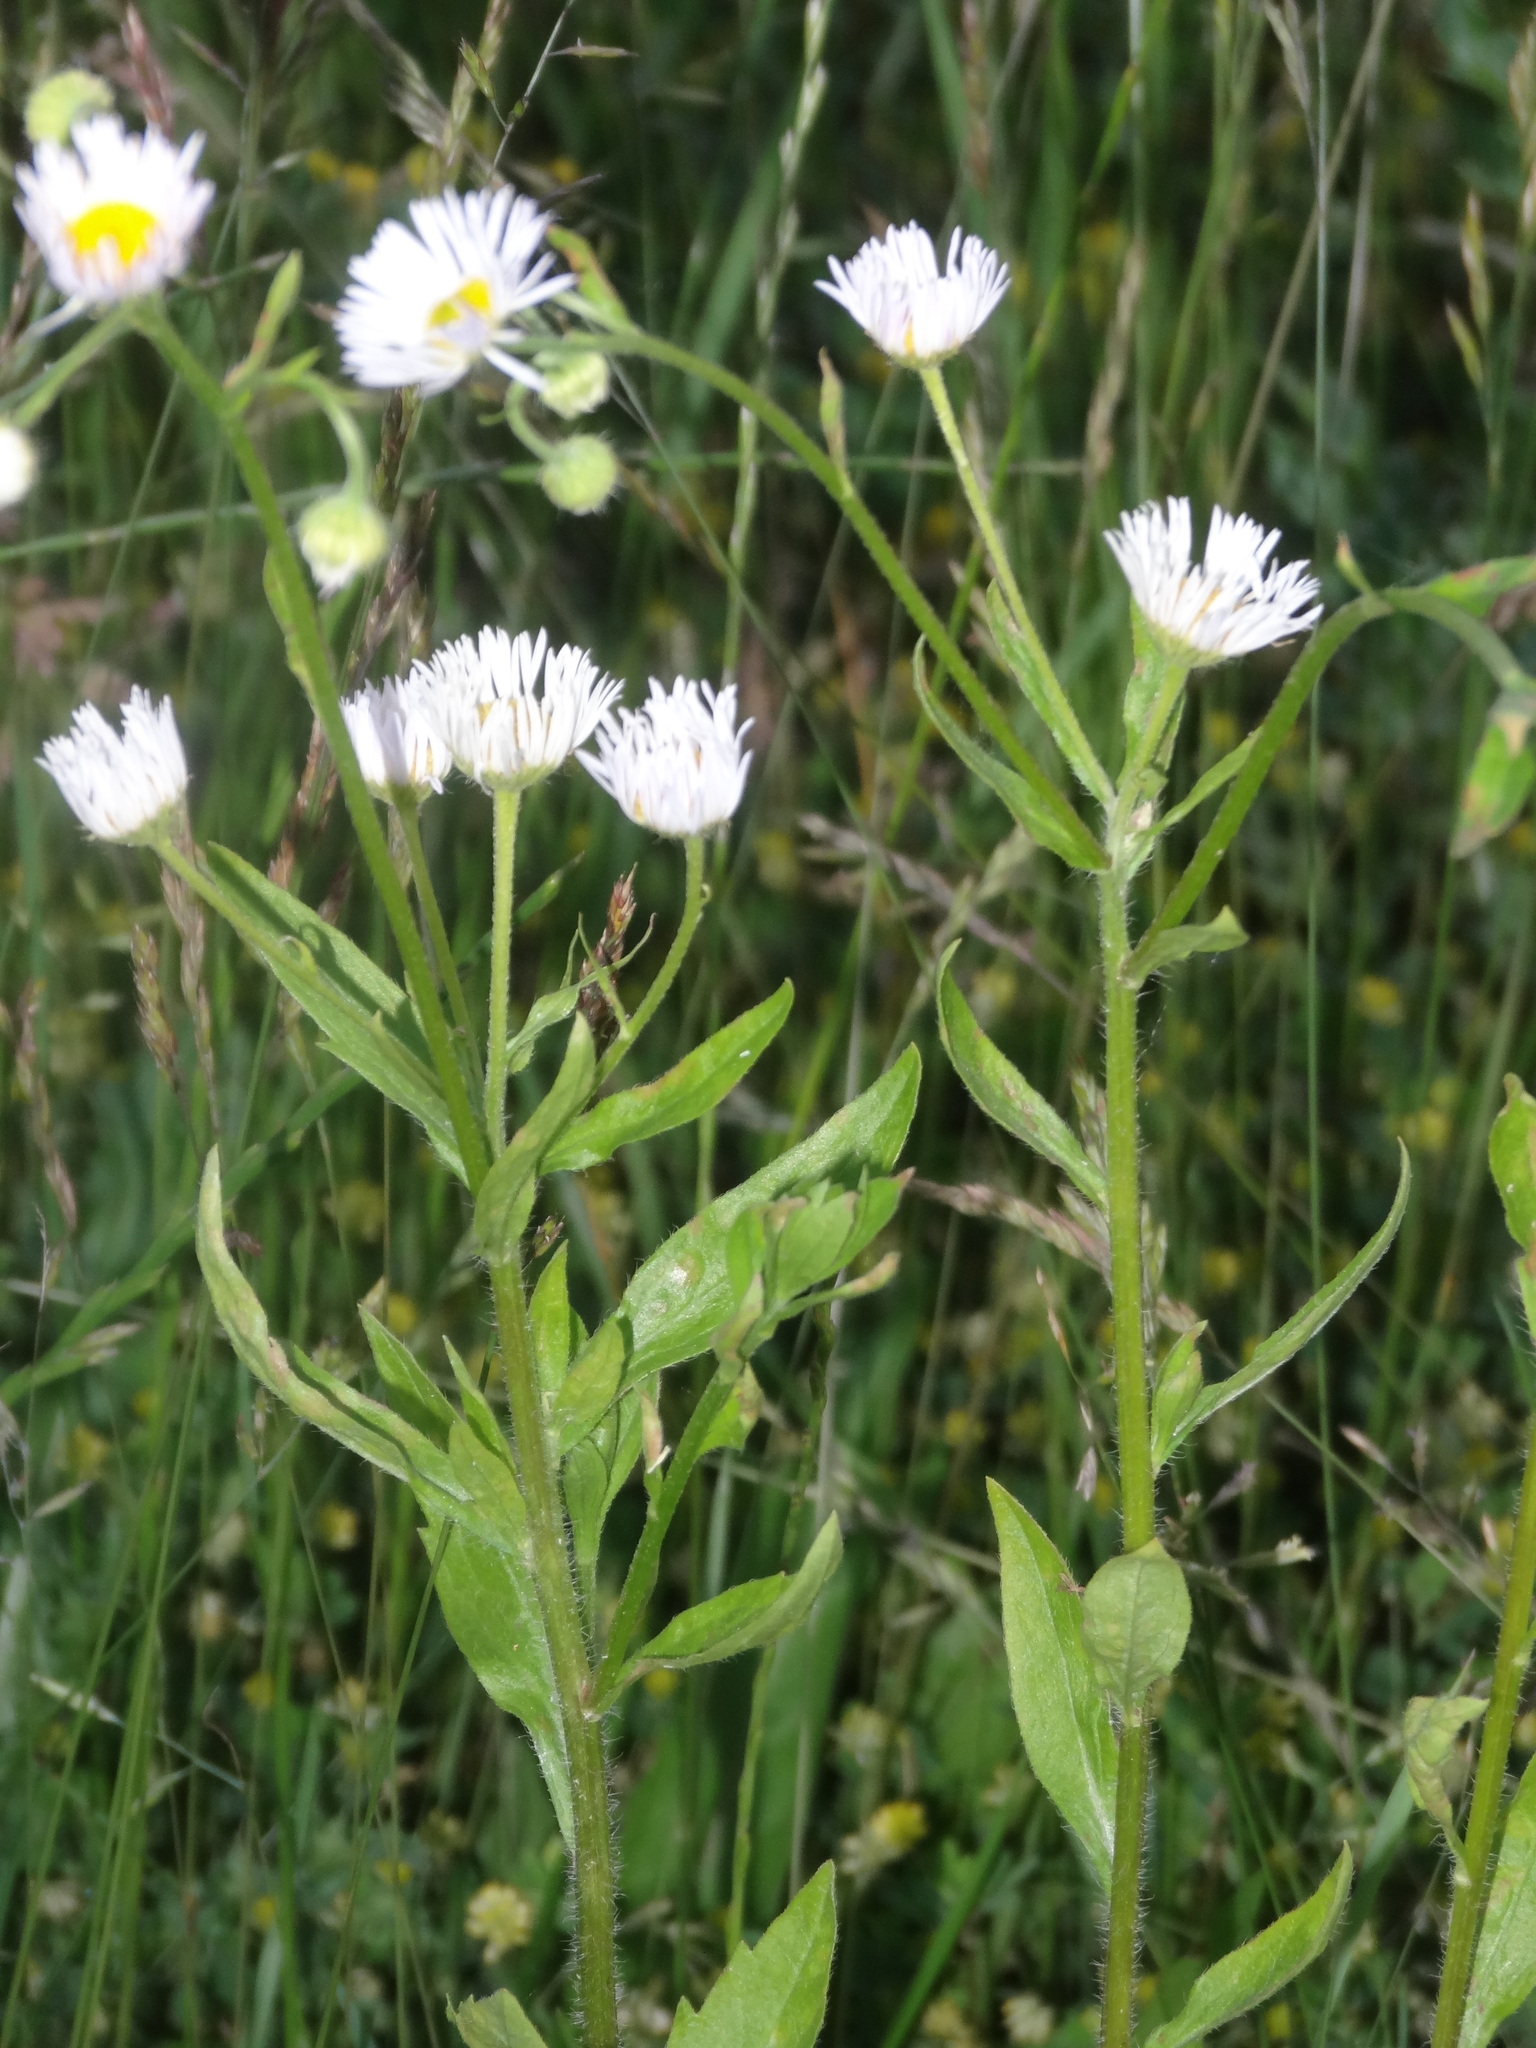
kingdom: Plantae
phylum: Tracheophyta
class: Magnoliopsida
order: Asterales
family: Asteraceae
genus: Erigeron
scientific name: Erigeron annuus
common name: Tall fleabane
